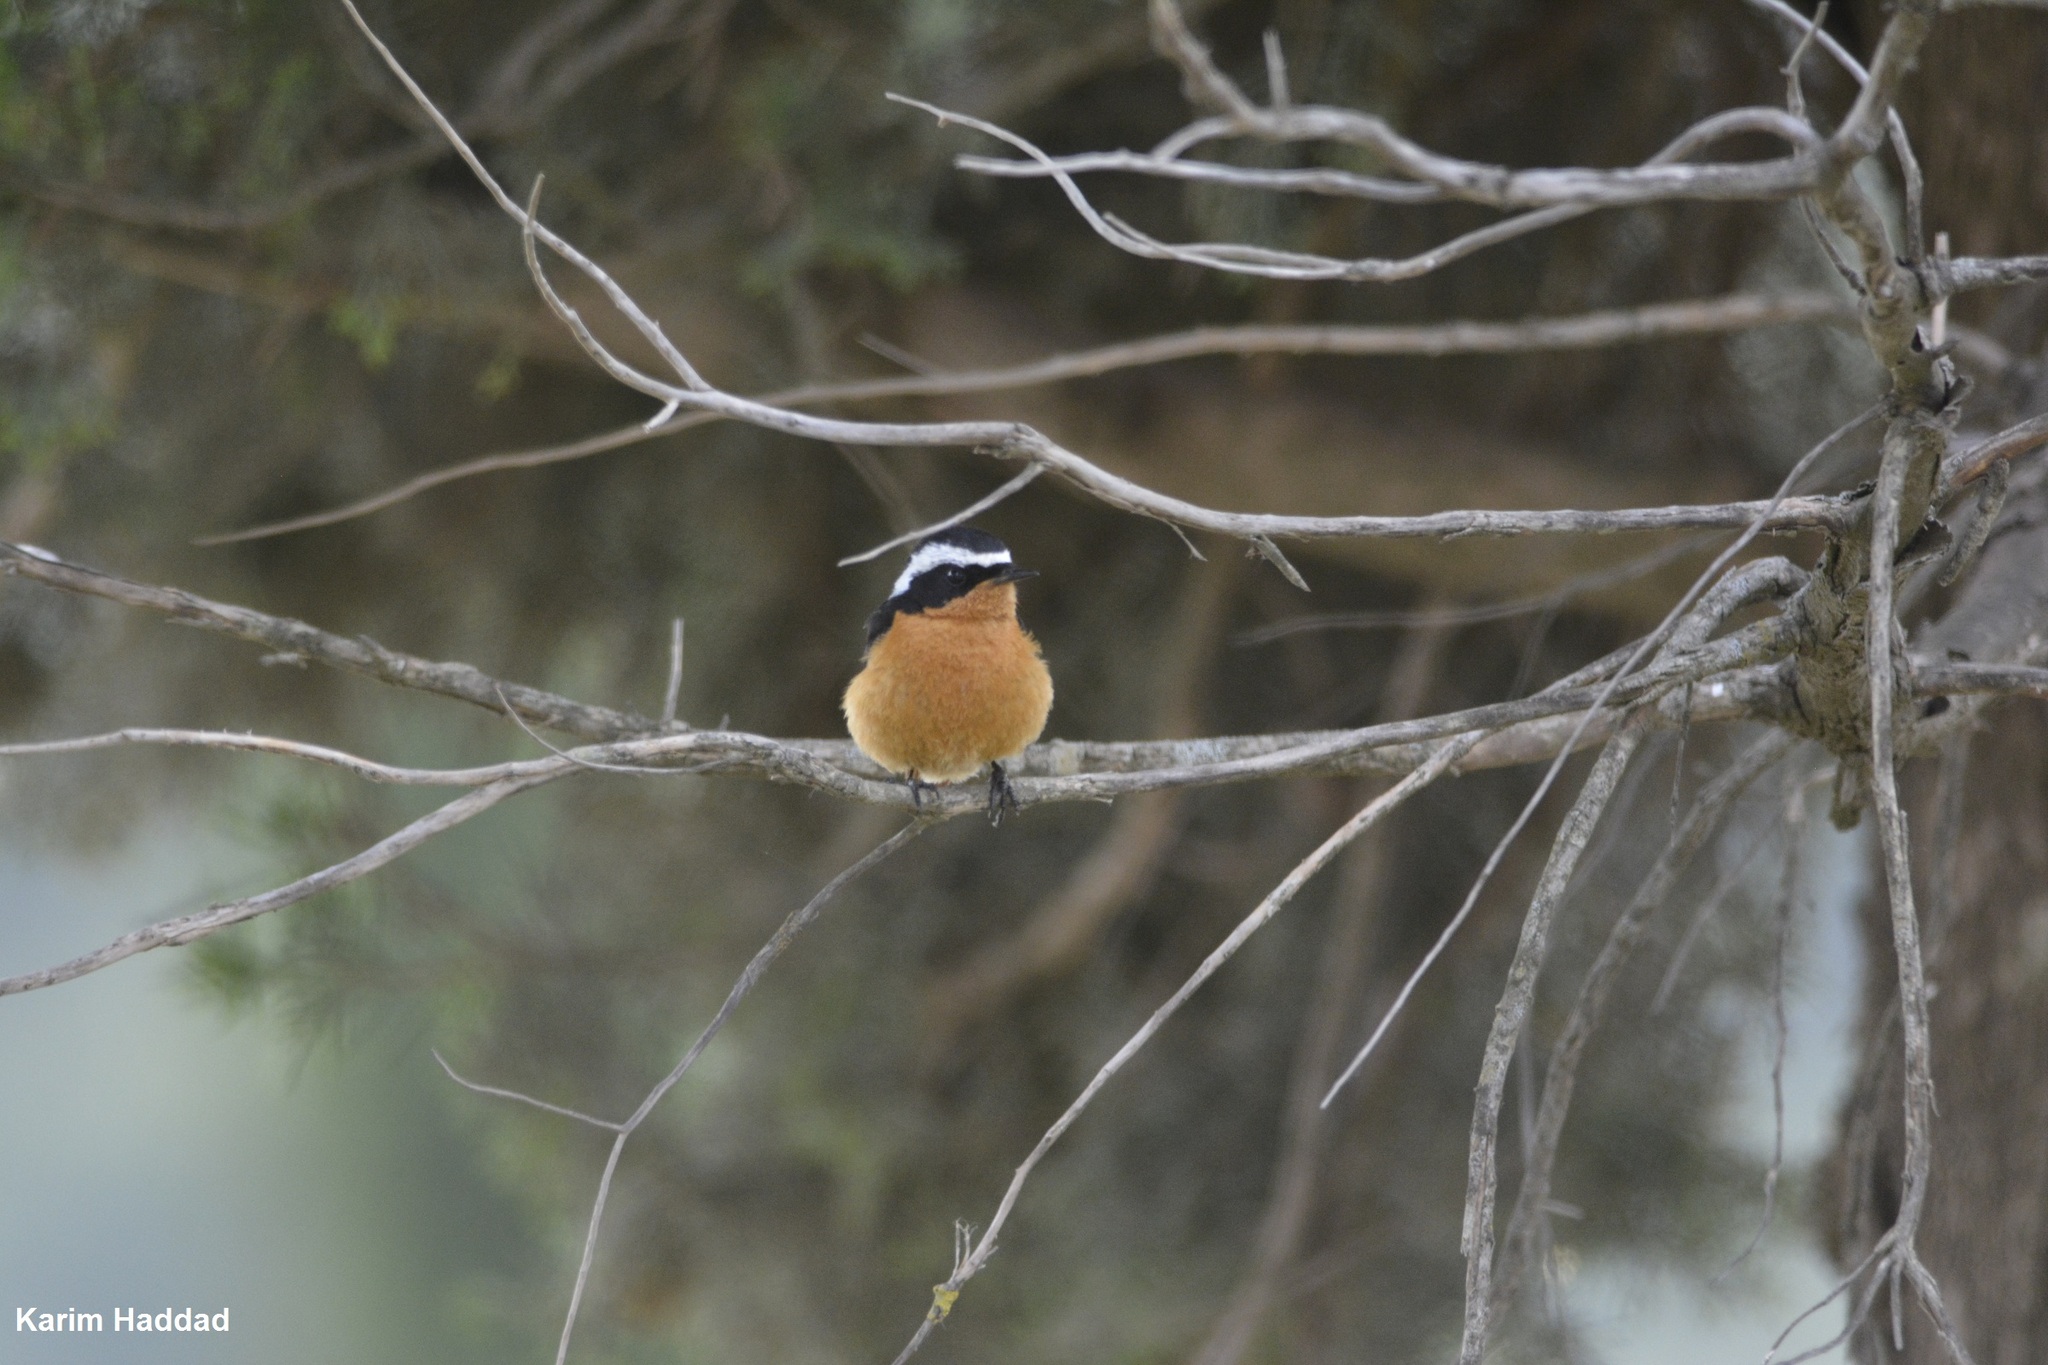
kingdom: Animalia
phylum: Chordata
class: Aves
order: Passeriformes
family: Muscicapidae
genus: Phoenicurus
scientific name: Phoenicurus moussieri
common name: Moussier's redstart
